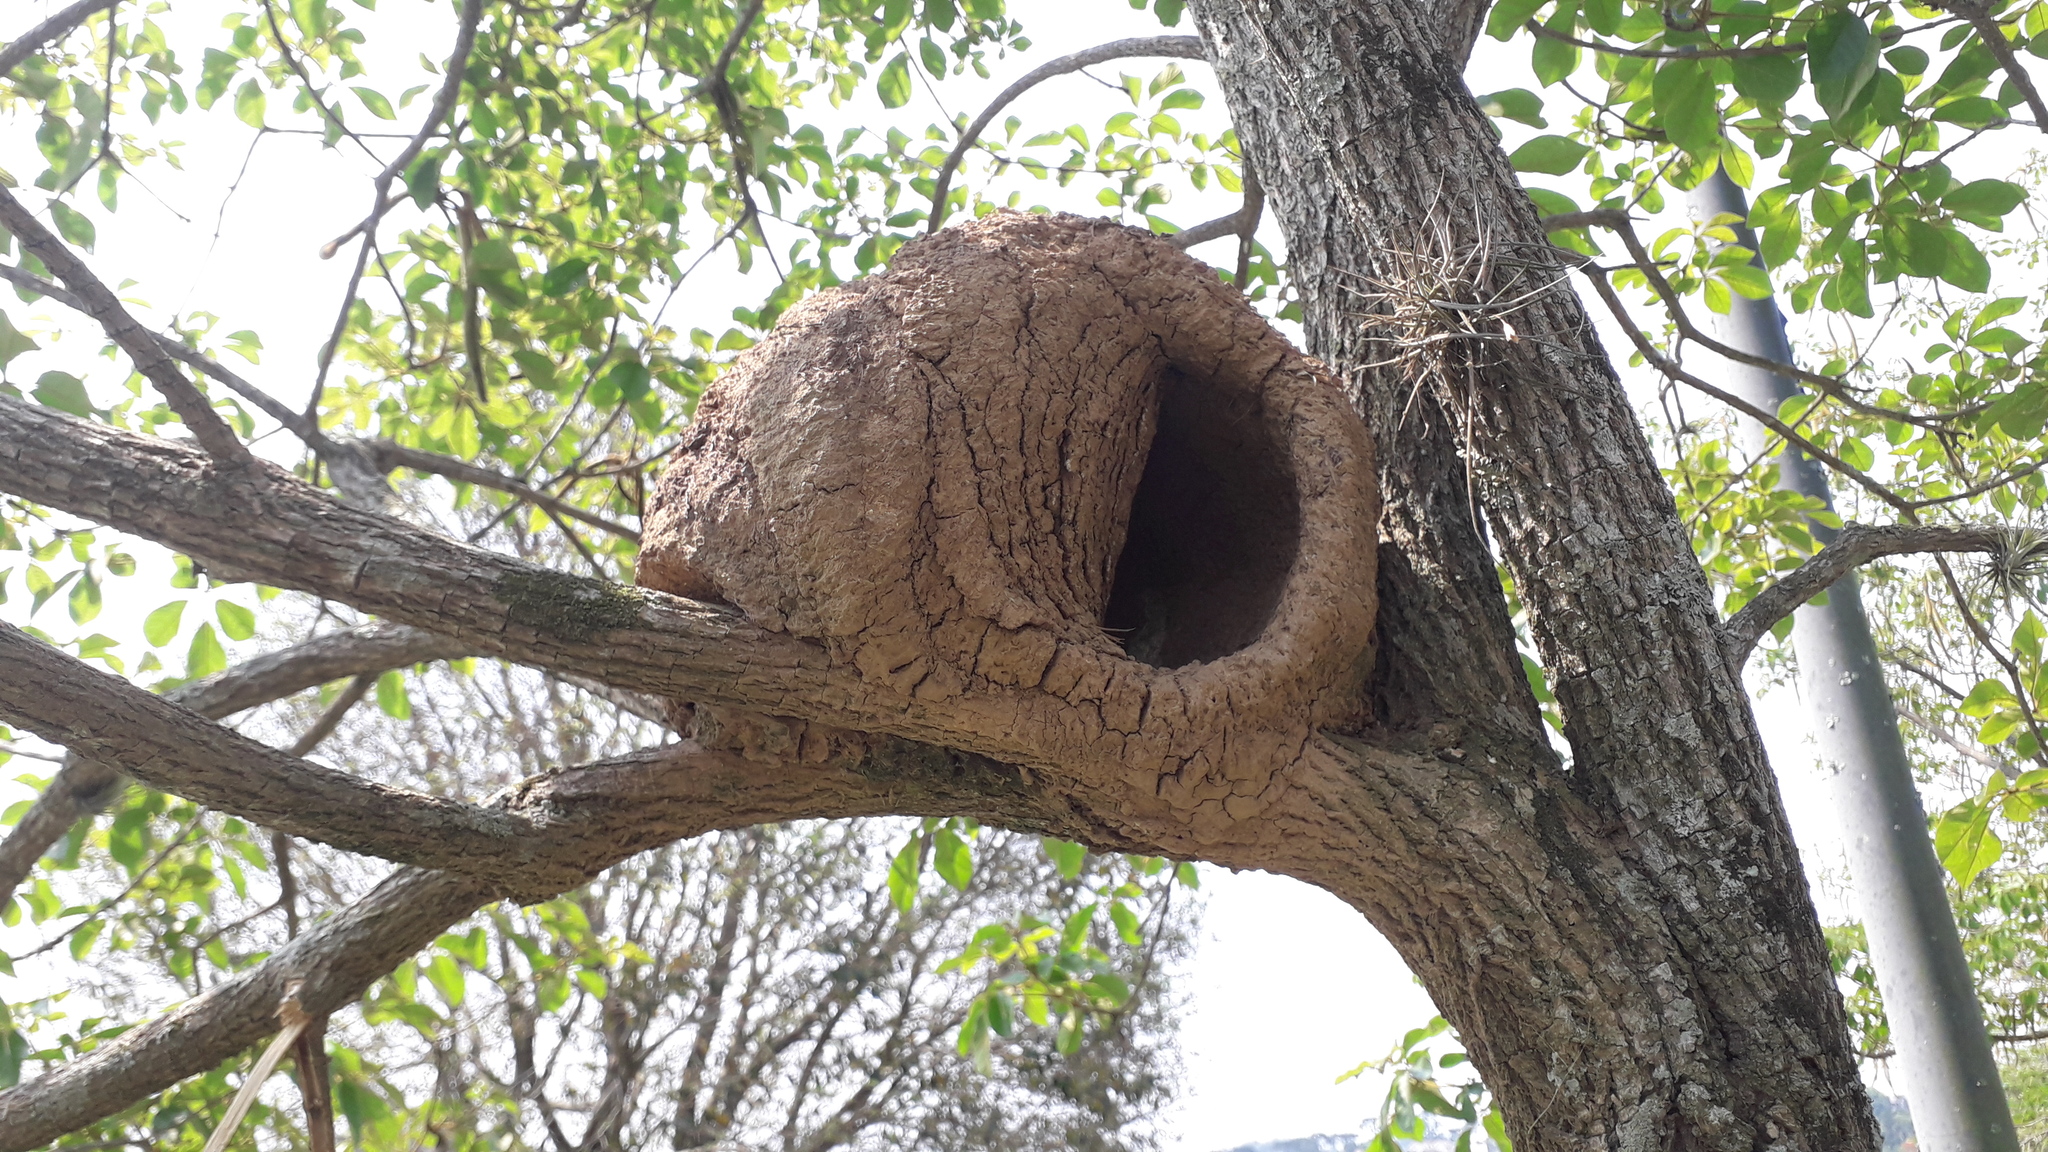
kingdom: Animalia
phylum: Chordata
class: Aves
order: Passeriformes
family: Furnariidae
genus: Furnarius
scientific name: Furnarius rufus
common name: Rufous hornero
